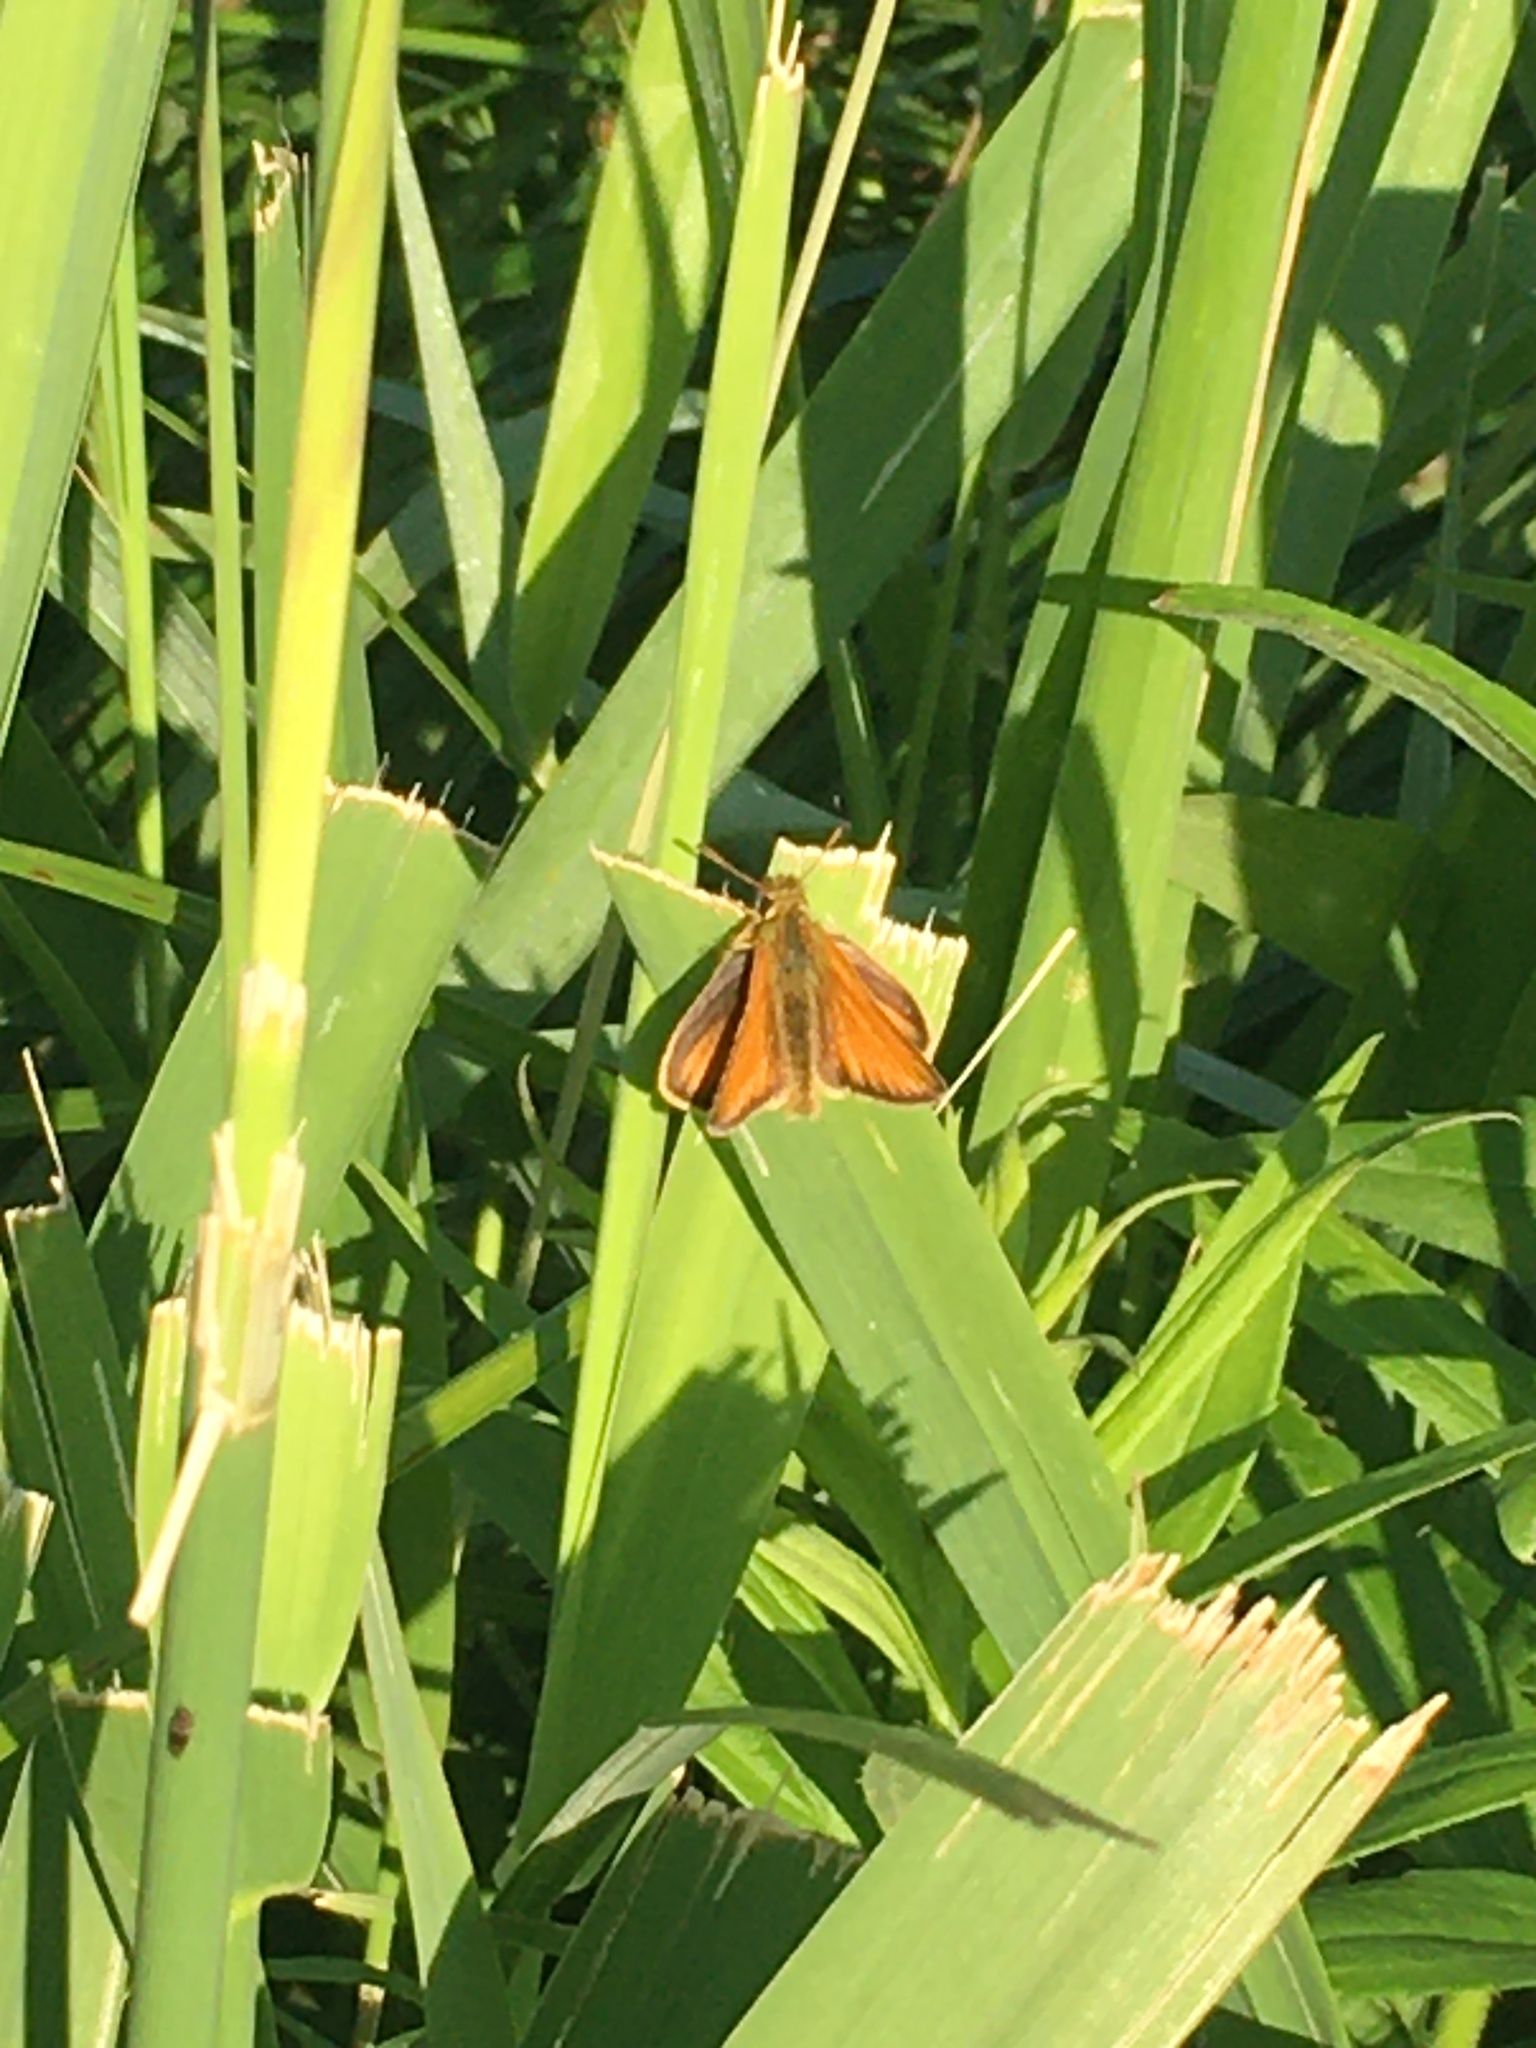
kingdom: Animalia
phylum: Arthropoda
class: Insecta
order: Lepidoptera
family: Hesperiidae
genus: Thymelicus
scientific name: Thymelicus lineola
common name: Essex skipper
